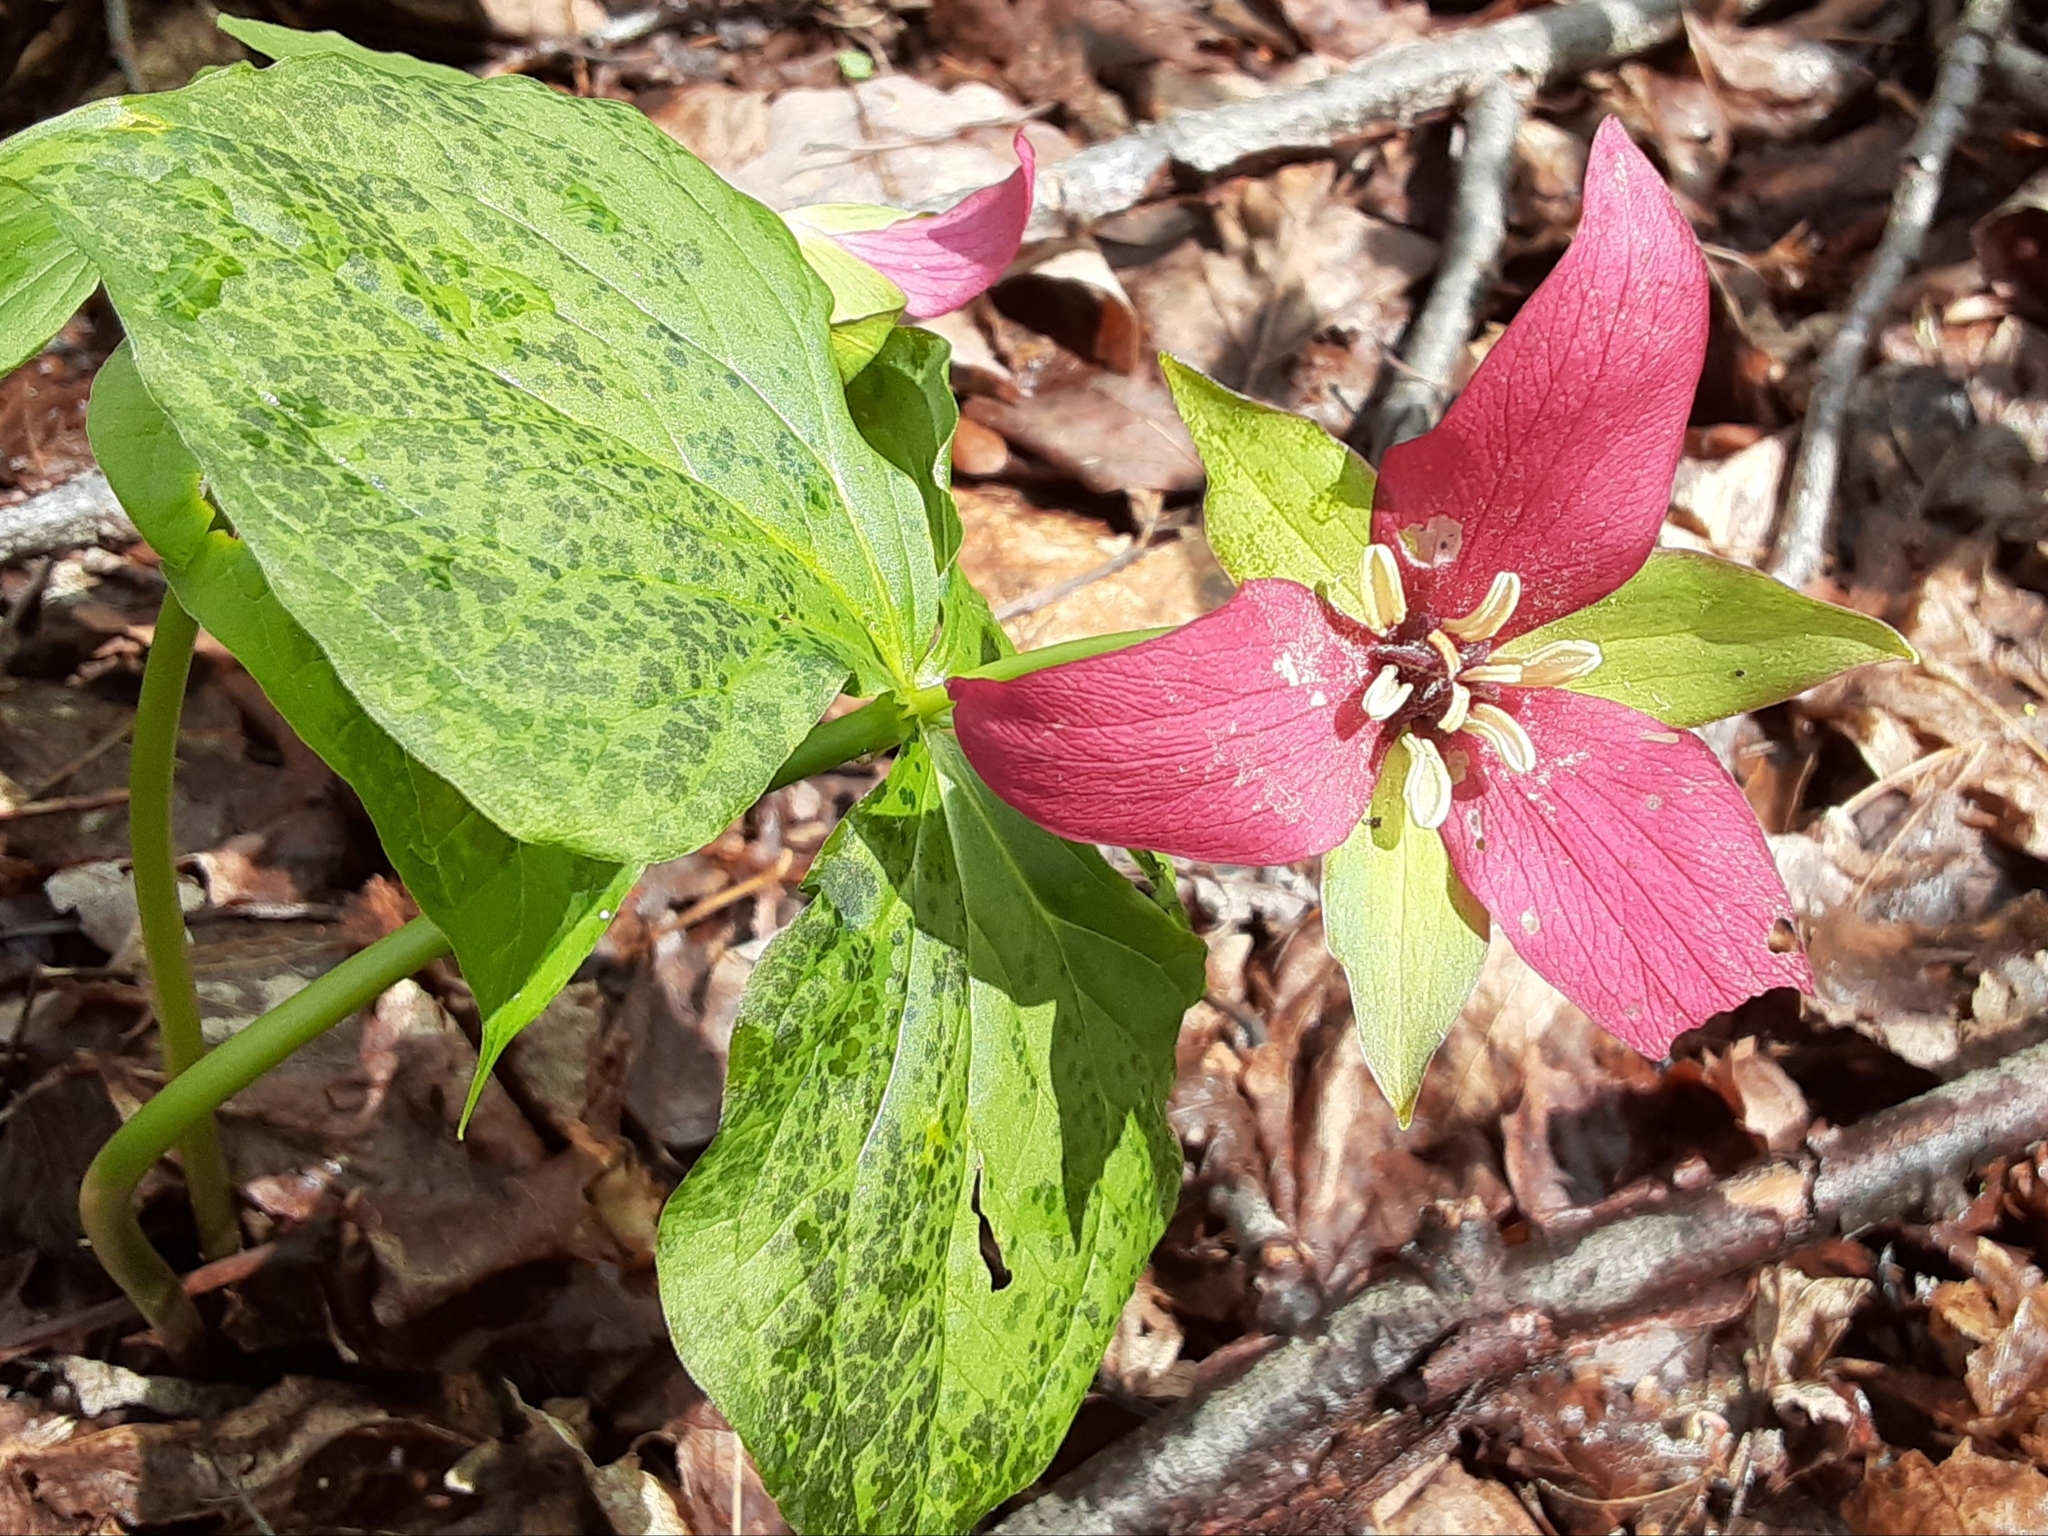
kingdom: Plantae
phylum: Tracheophyta
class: Liliopsida
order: Liliales
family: Melanthiaceae
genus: Trillium
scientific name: Trillium erectum
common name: Purple trillium
